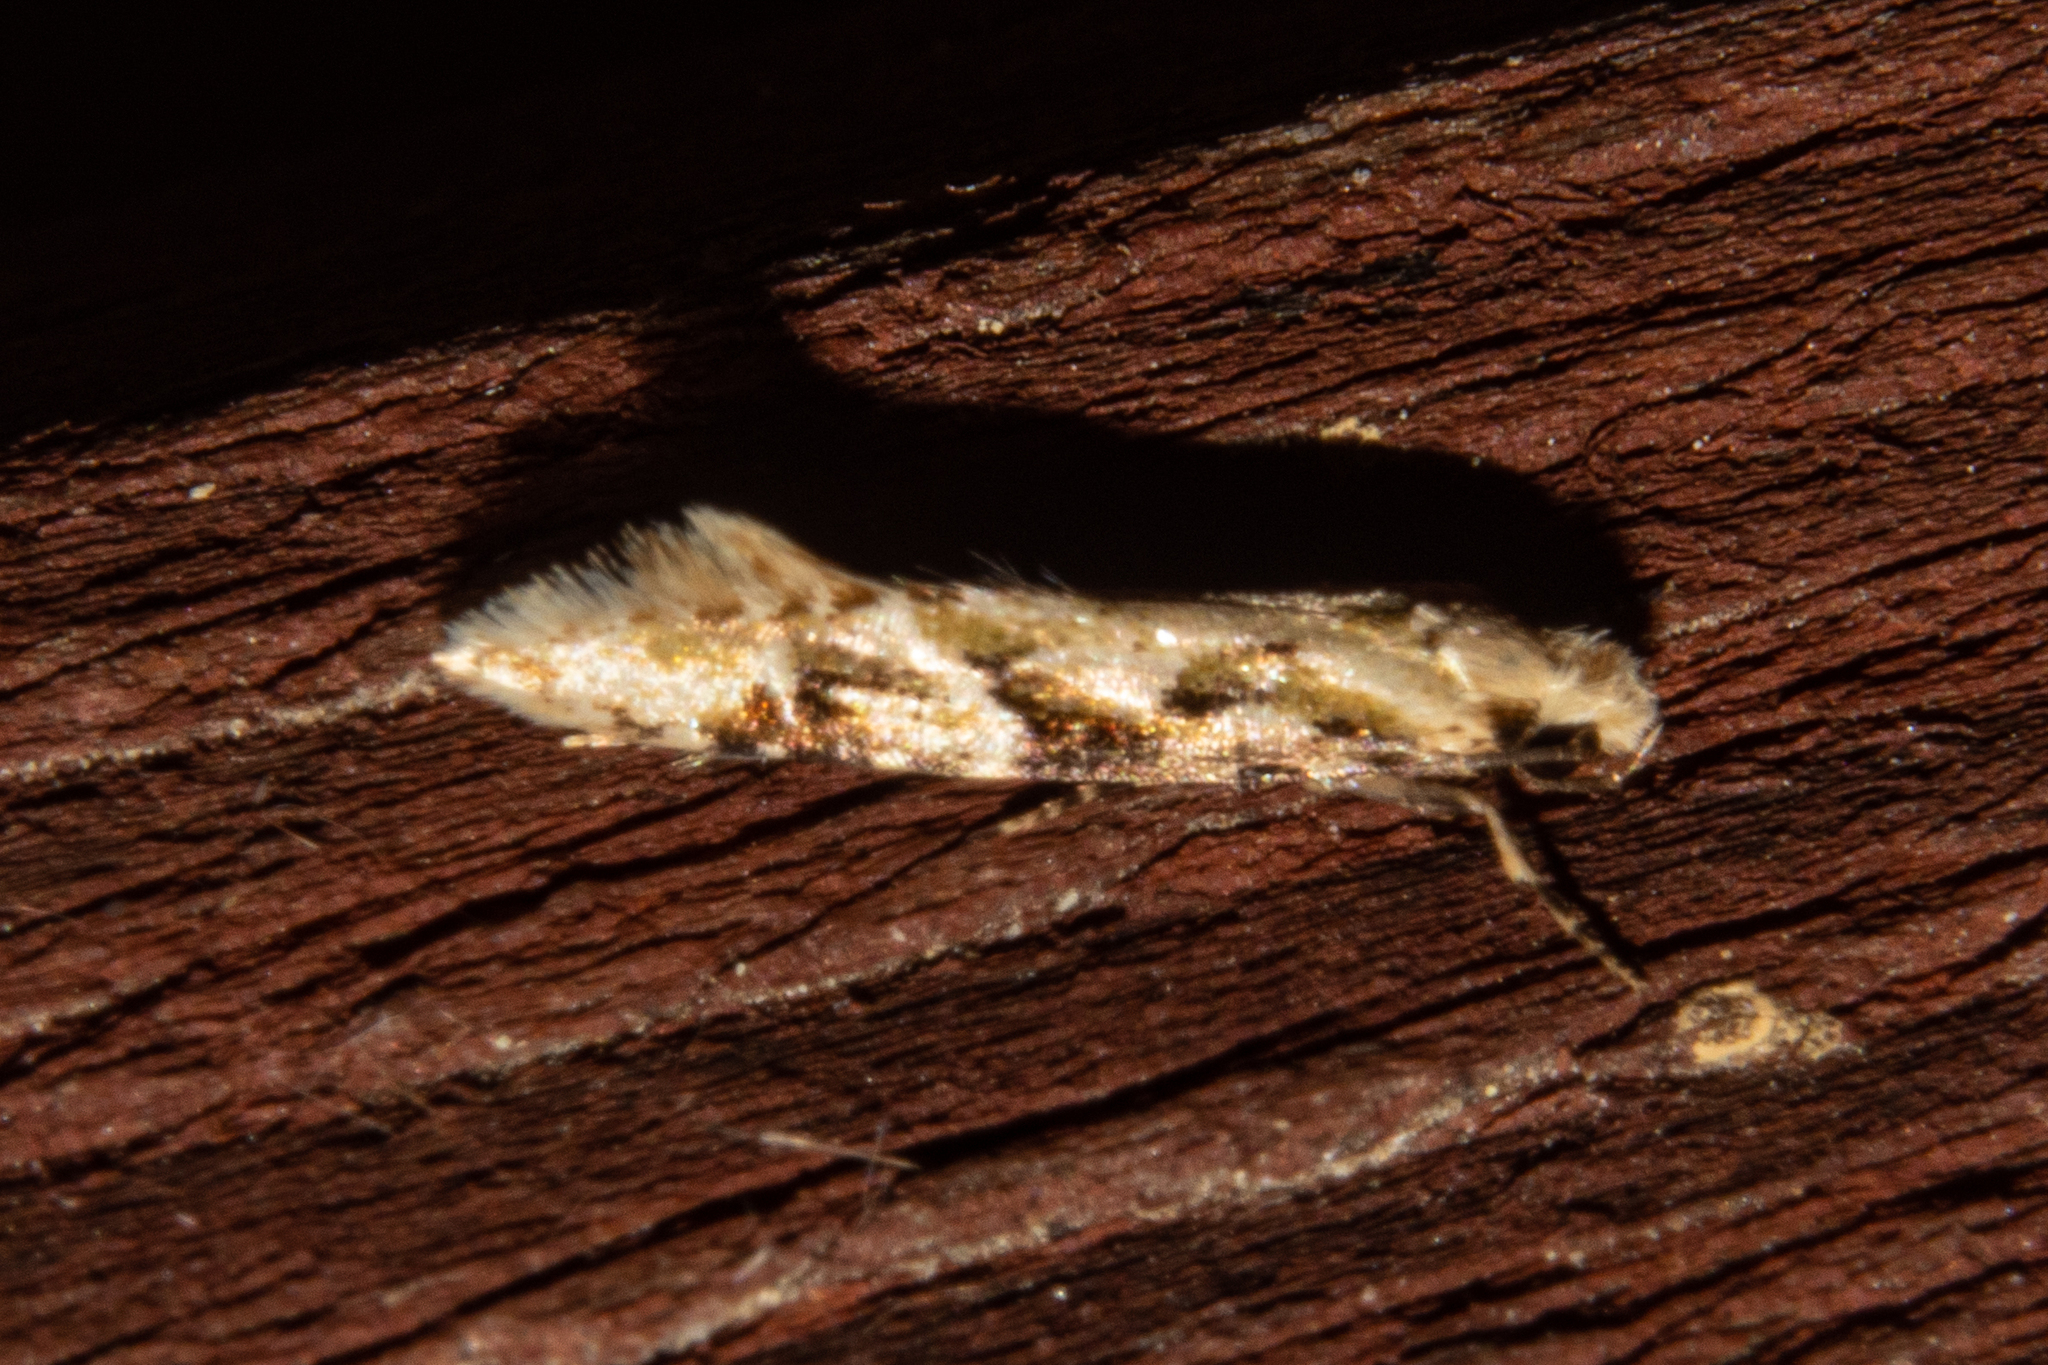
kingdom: Animalia
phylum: Arthropoda
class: Insecta
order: Lepidoptera
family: Tineidae
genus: Crypsitricha
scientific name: Crypsitricha mesotypa
